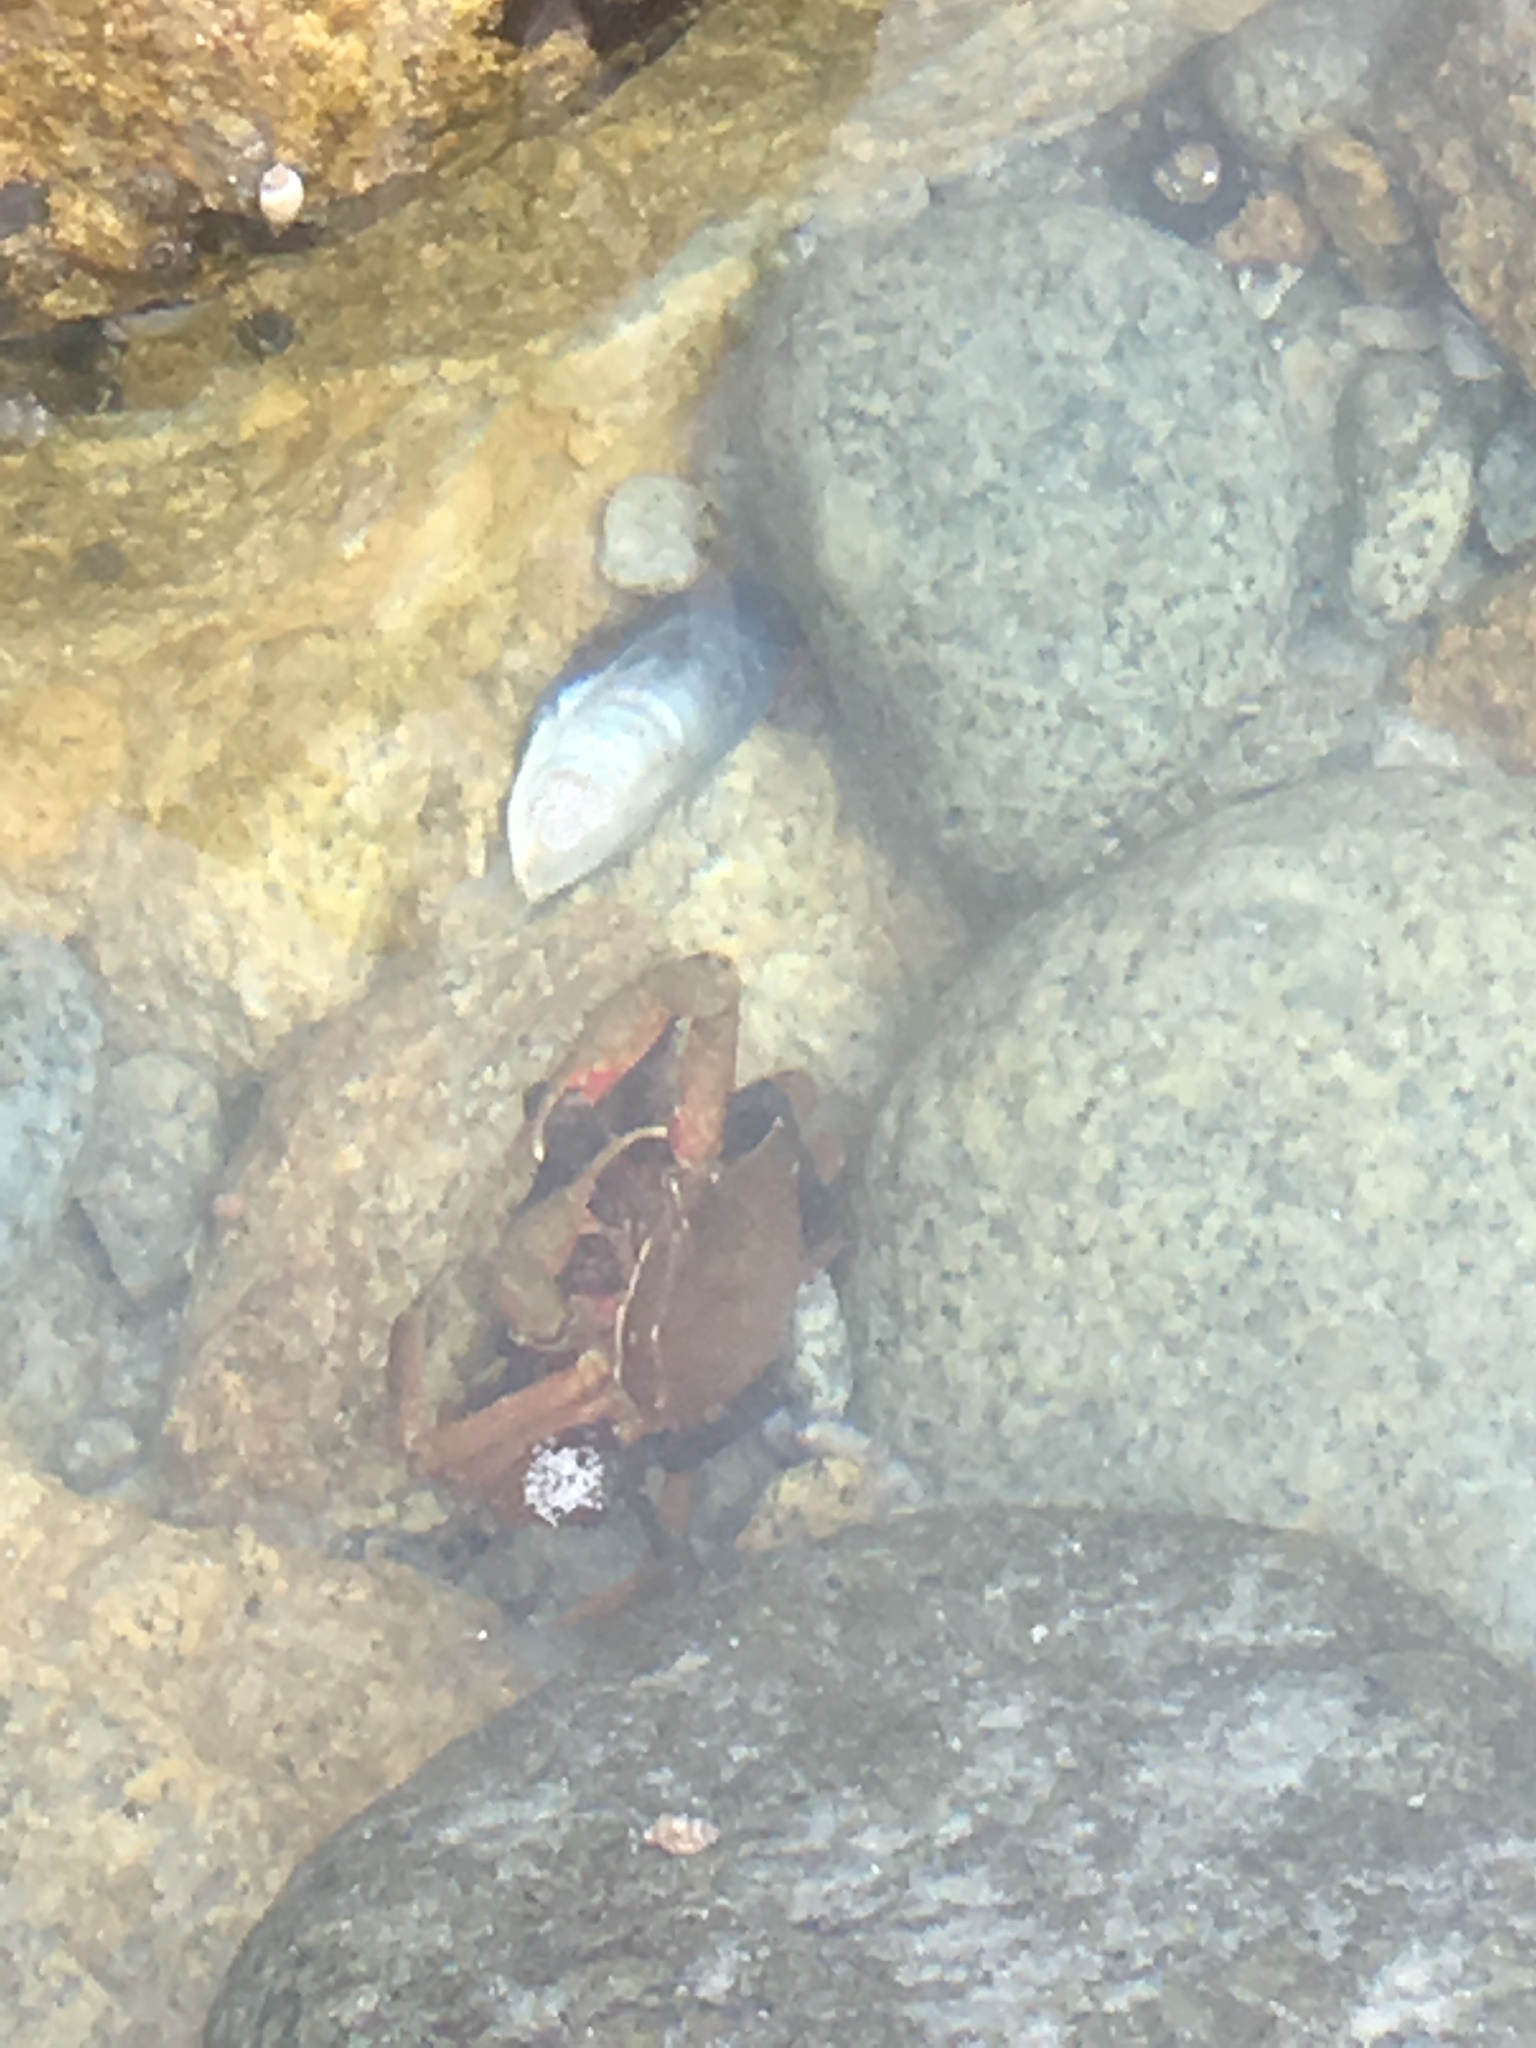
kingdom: Animalia
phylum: Arthropoda
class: Malacostraca
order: Decapoda
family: Epialtidae
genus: Pugettia
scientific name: Pugettia producta
